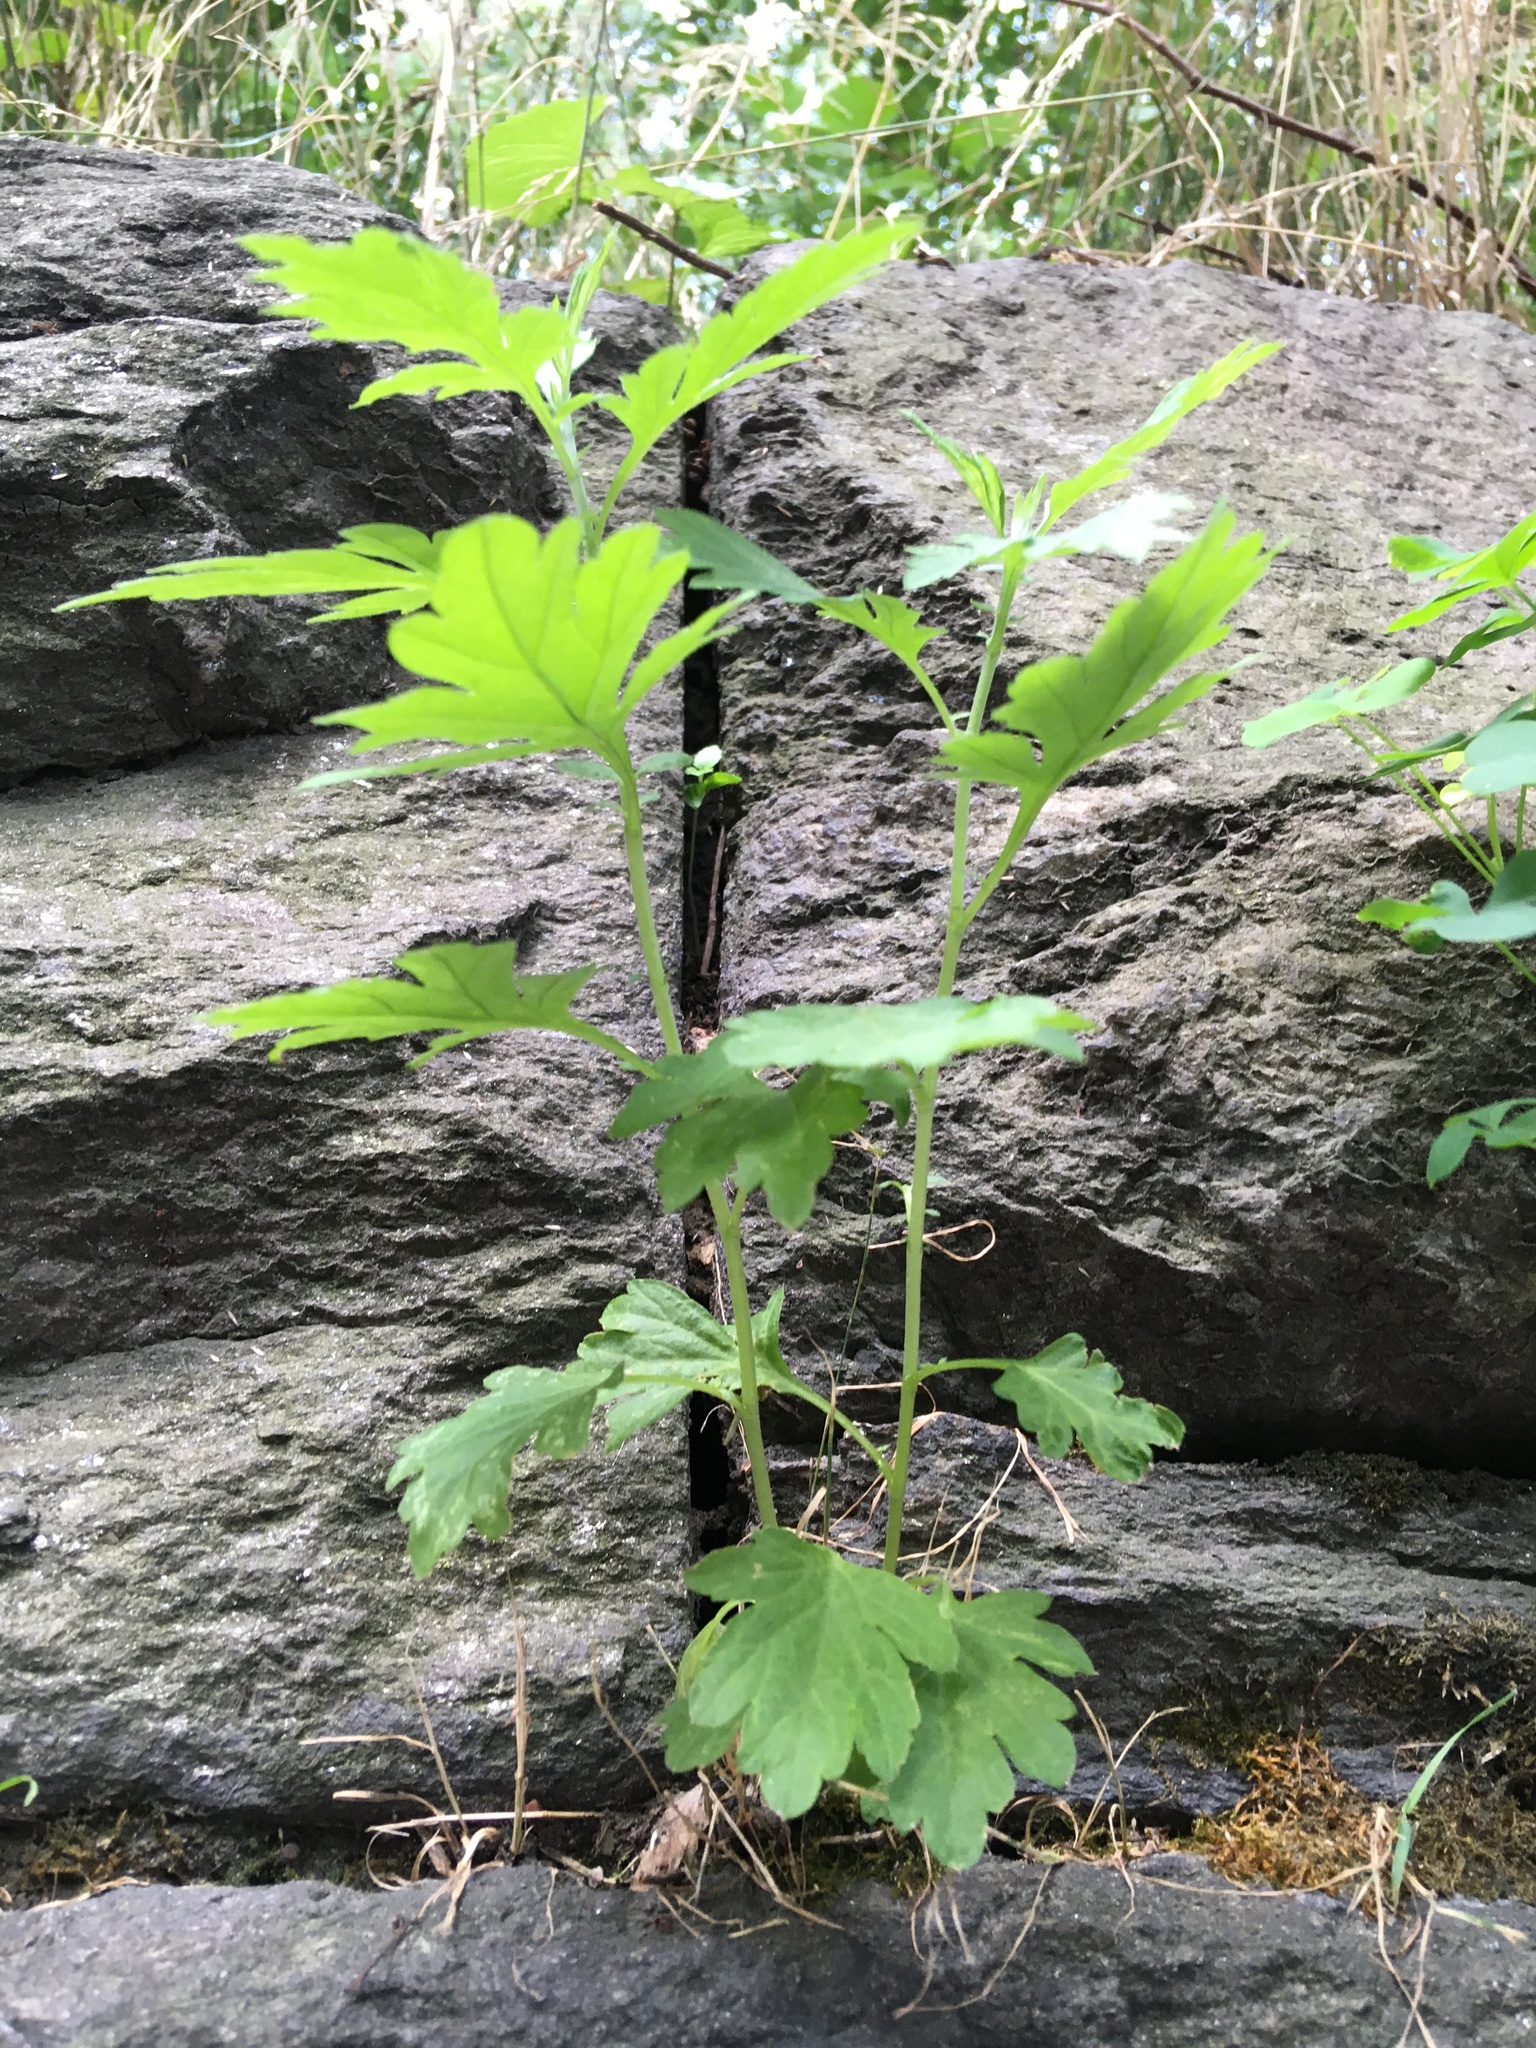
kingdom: Plantae
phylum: Tracheophyta
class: Magnoliopsida
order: Asterales
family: Asteraceae
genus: Artemisia
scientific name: Artemisia vulgaris
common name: Mugwort
